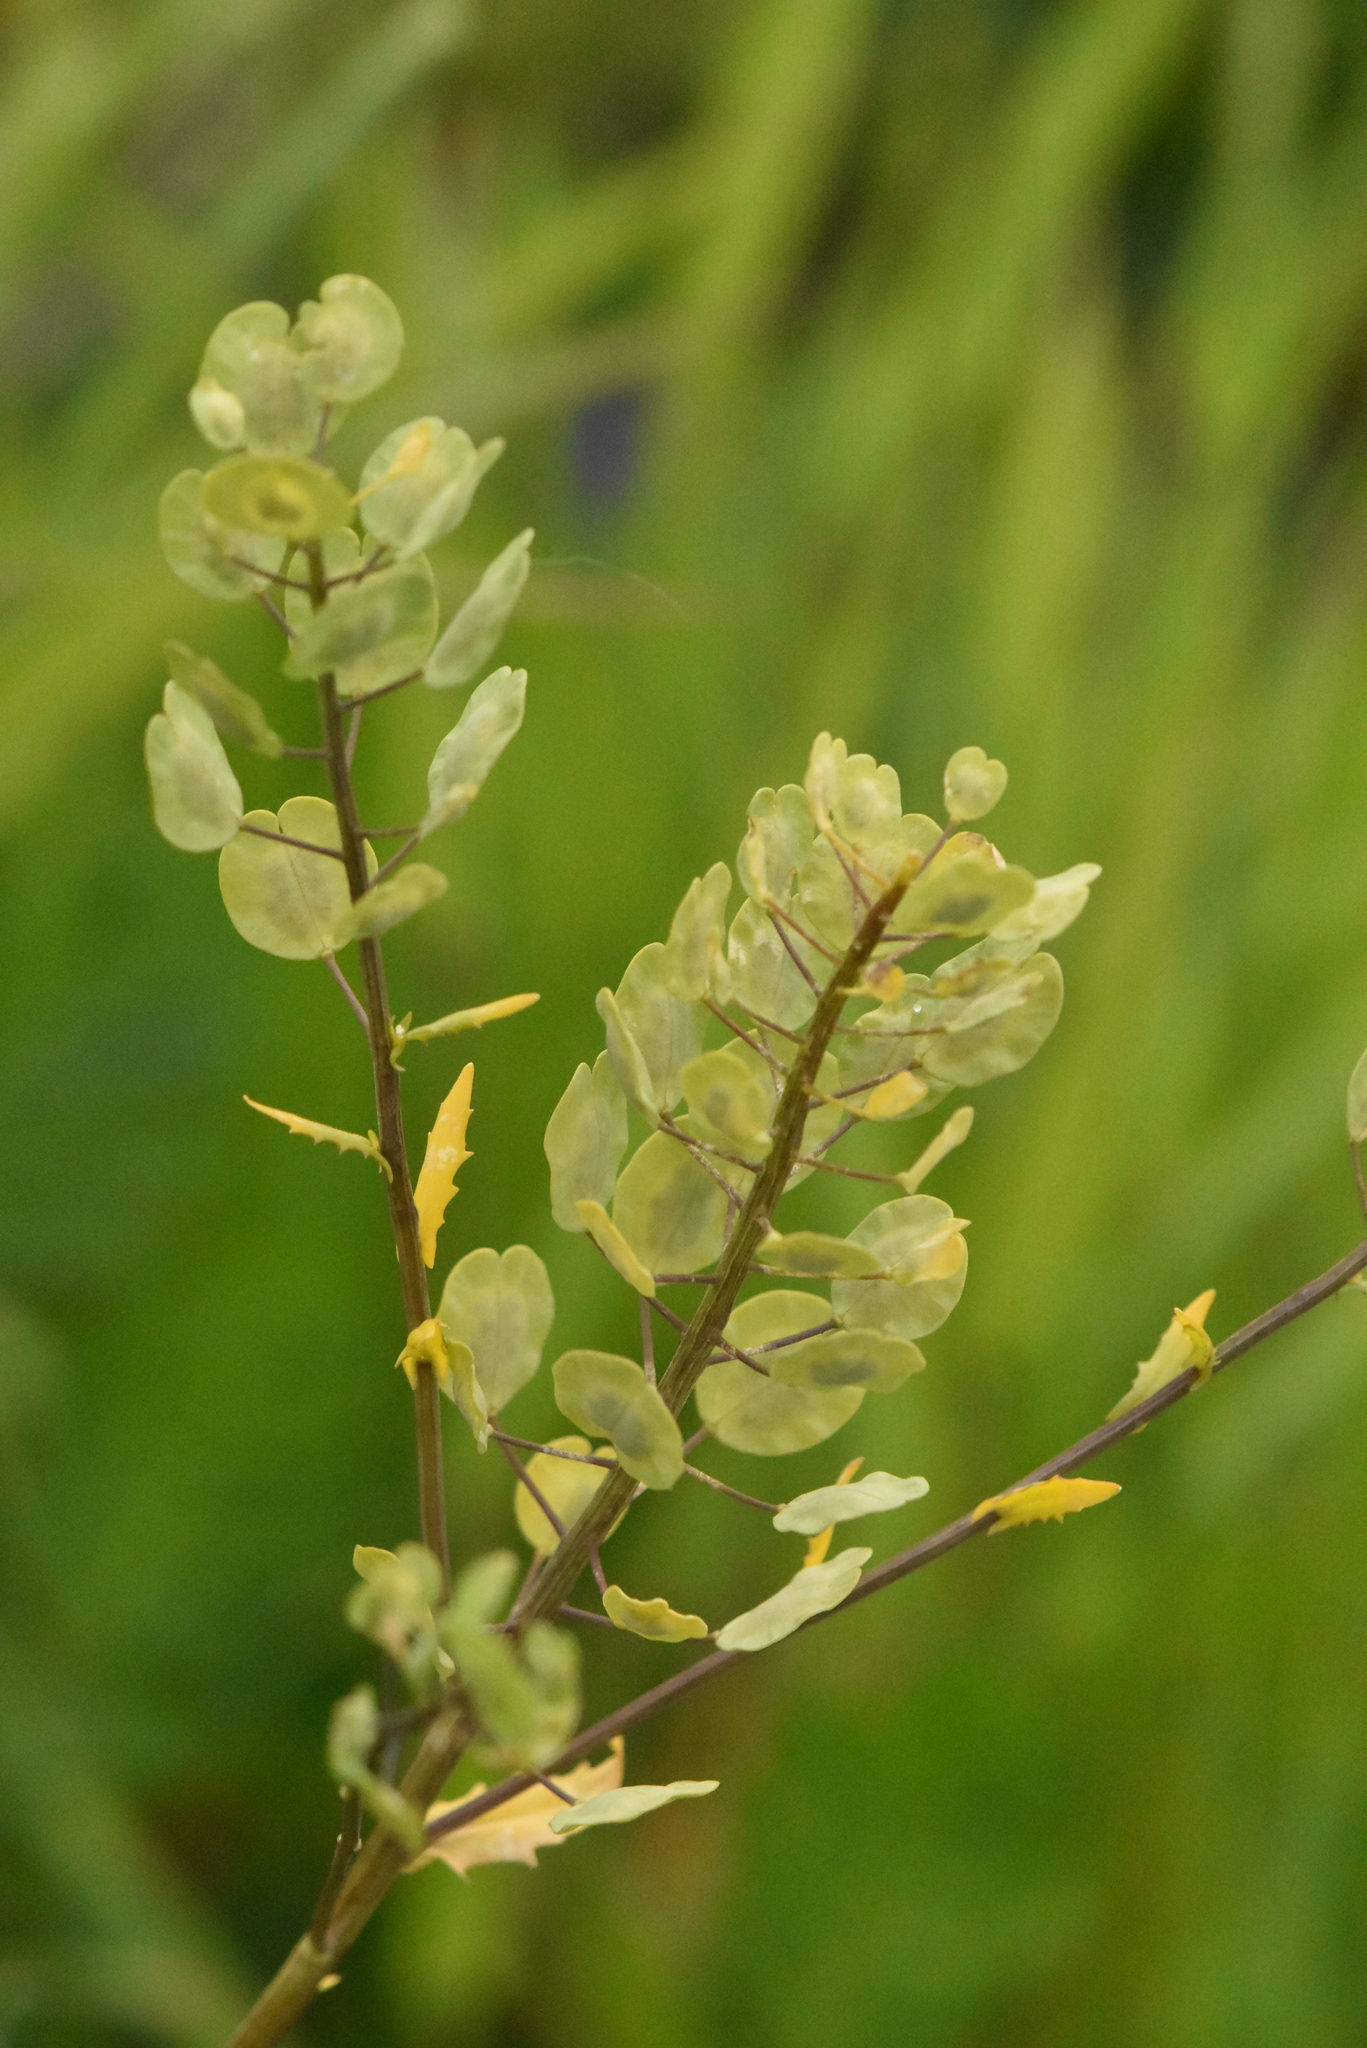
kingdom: Plantae
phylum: Tracheophyta
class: Magnoliopsida
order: Brassicales
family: Brassicaceae
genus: Thlaspi
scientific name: Thlaspi arvense
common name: Field pennycress
